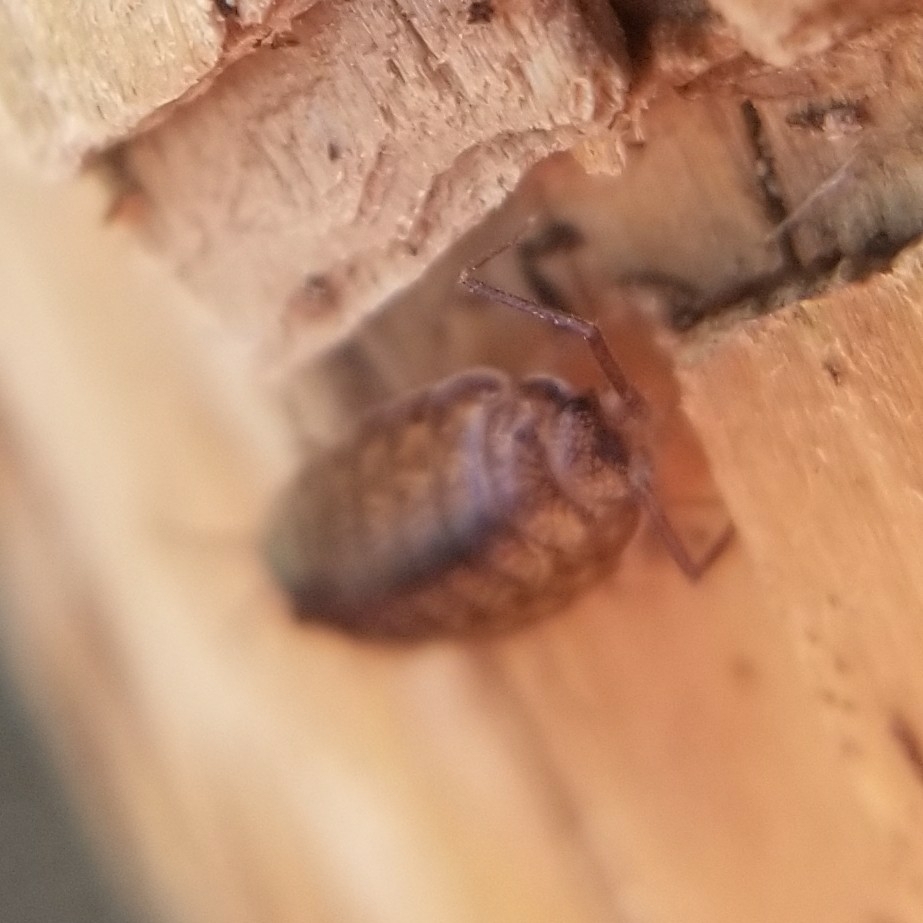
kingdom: Animalia
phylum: Arthropoda
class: Malacostraca
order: Isopoda
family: Halophilosciidae
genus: Littorophiloscia
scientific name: Littorophiloscia richardsonae
